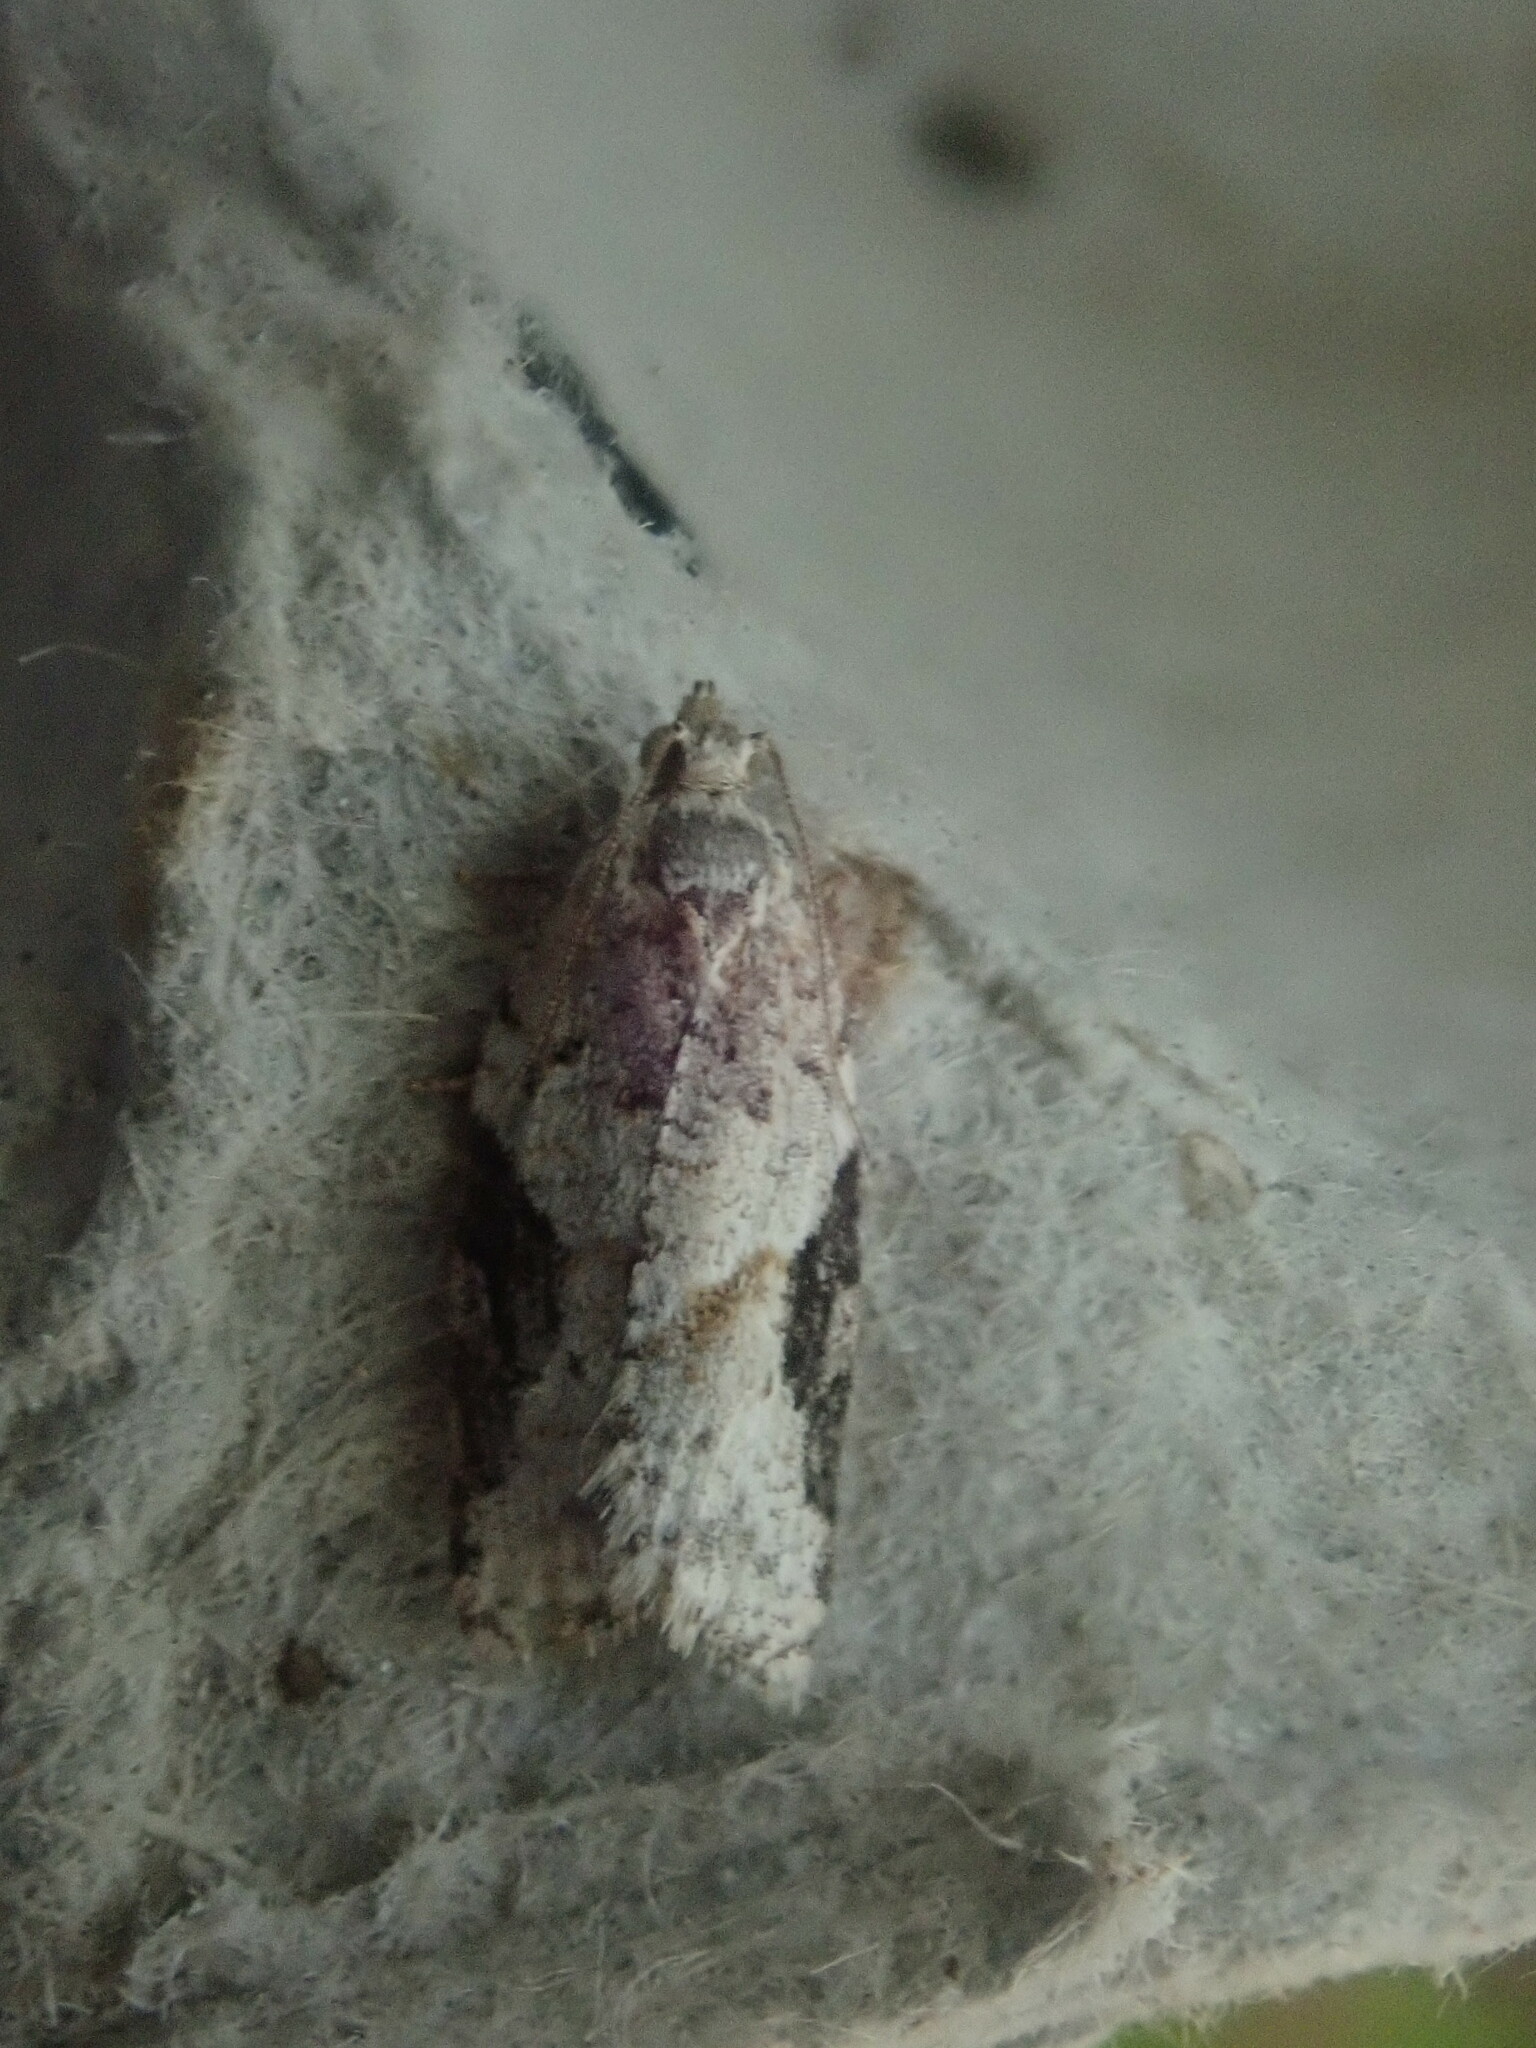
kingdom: Animalia
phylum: Arthropoda
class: Insecta
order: Lepidoptera
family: Tortricidae
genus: Argyrotaenia
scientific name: Argyrotaenia mariana
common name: Gray-banded leafroller moth
